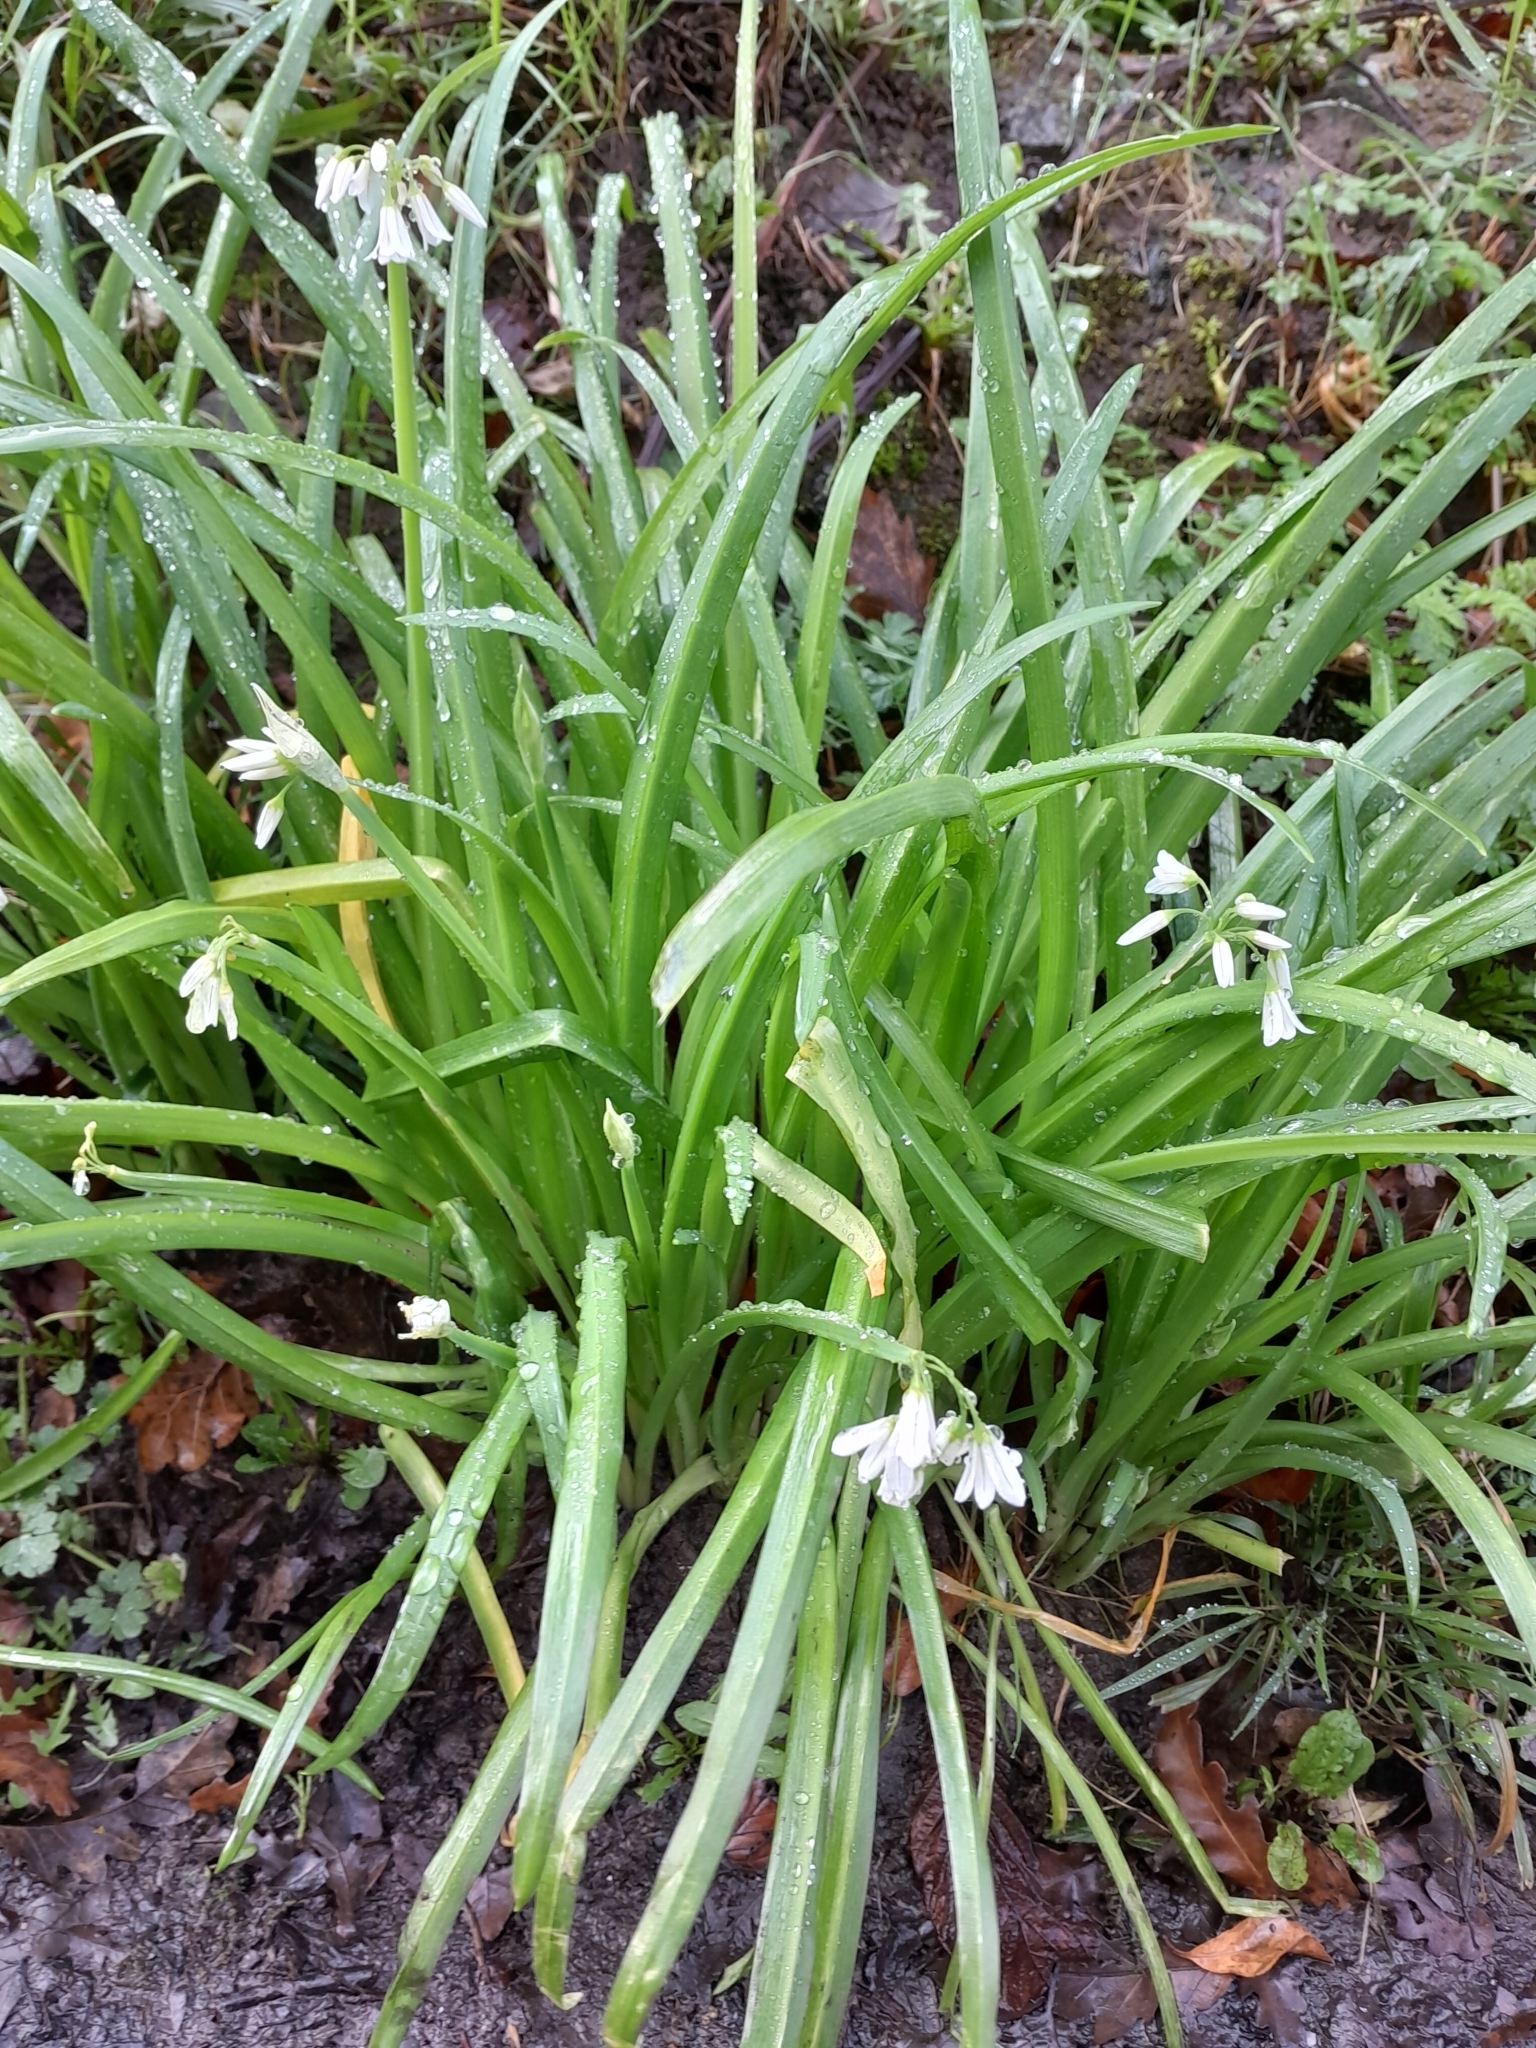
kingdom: Plantae
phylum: Tracheophyta
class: Liliopsida
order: Asparagales
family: Amaryllidaceae
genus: Allium
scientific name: Allium triquetrum
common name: Three-cornered garlic
